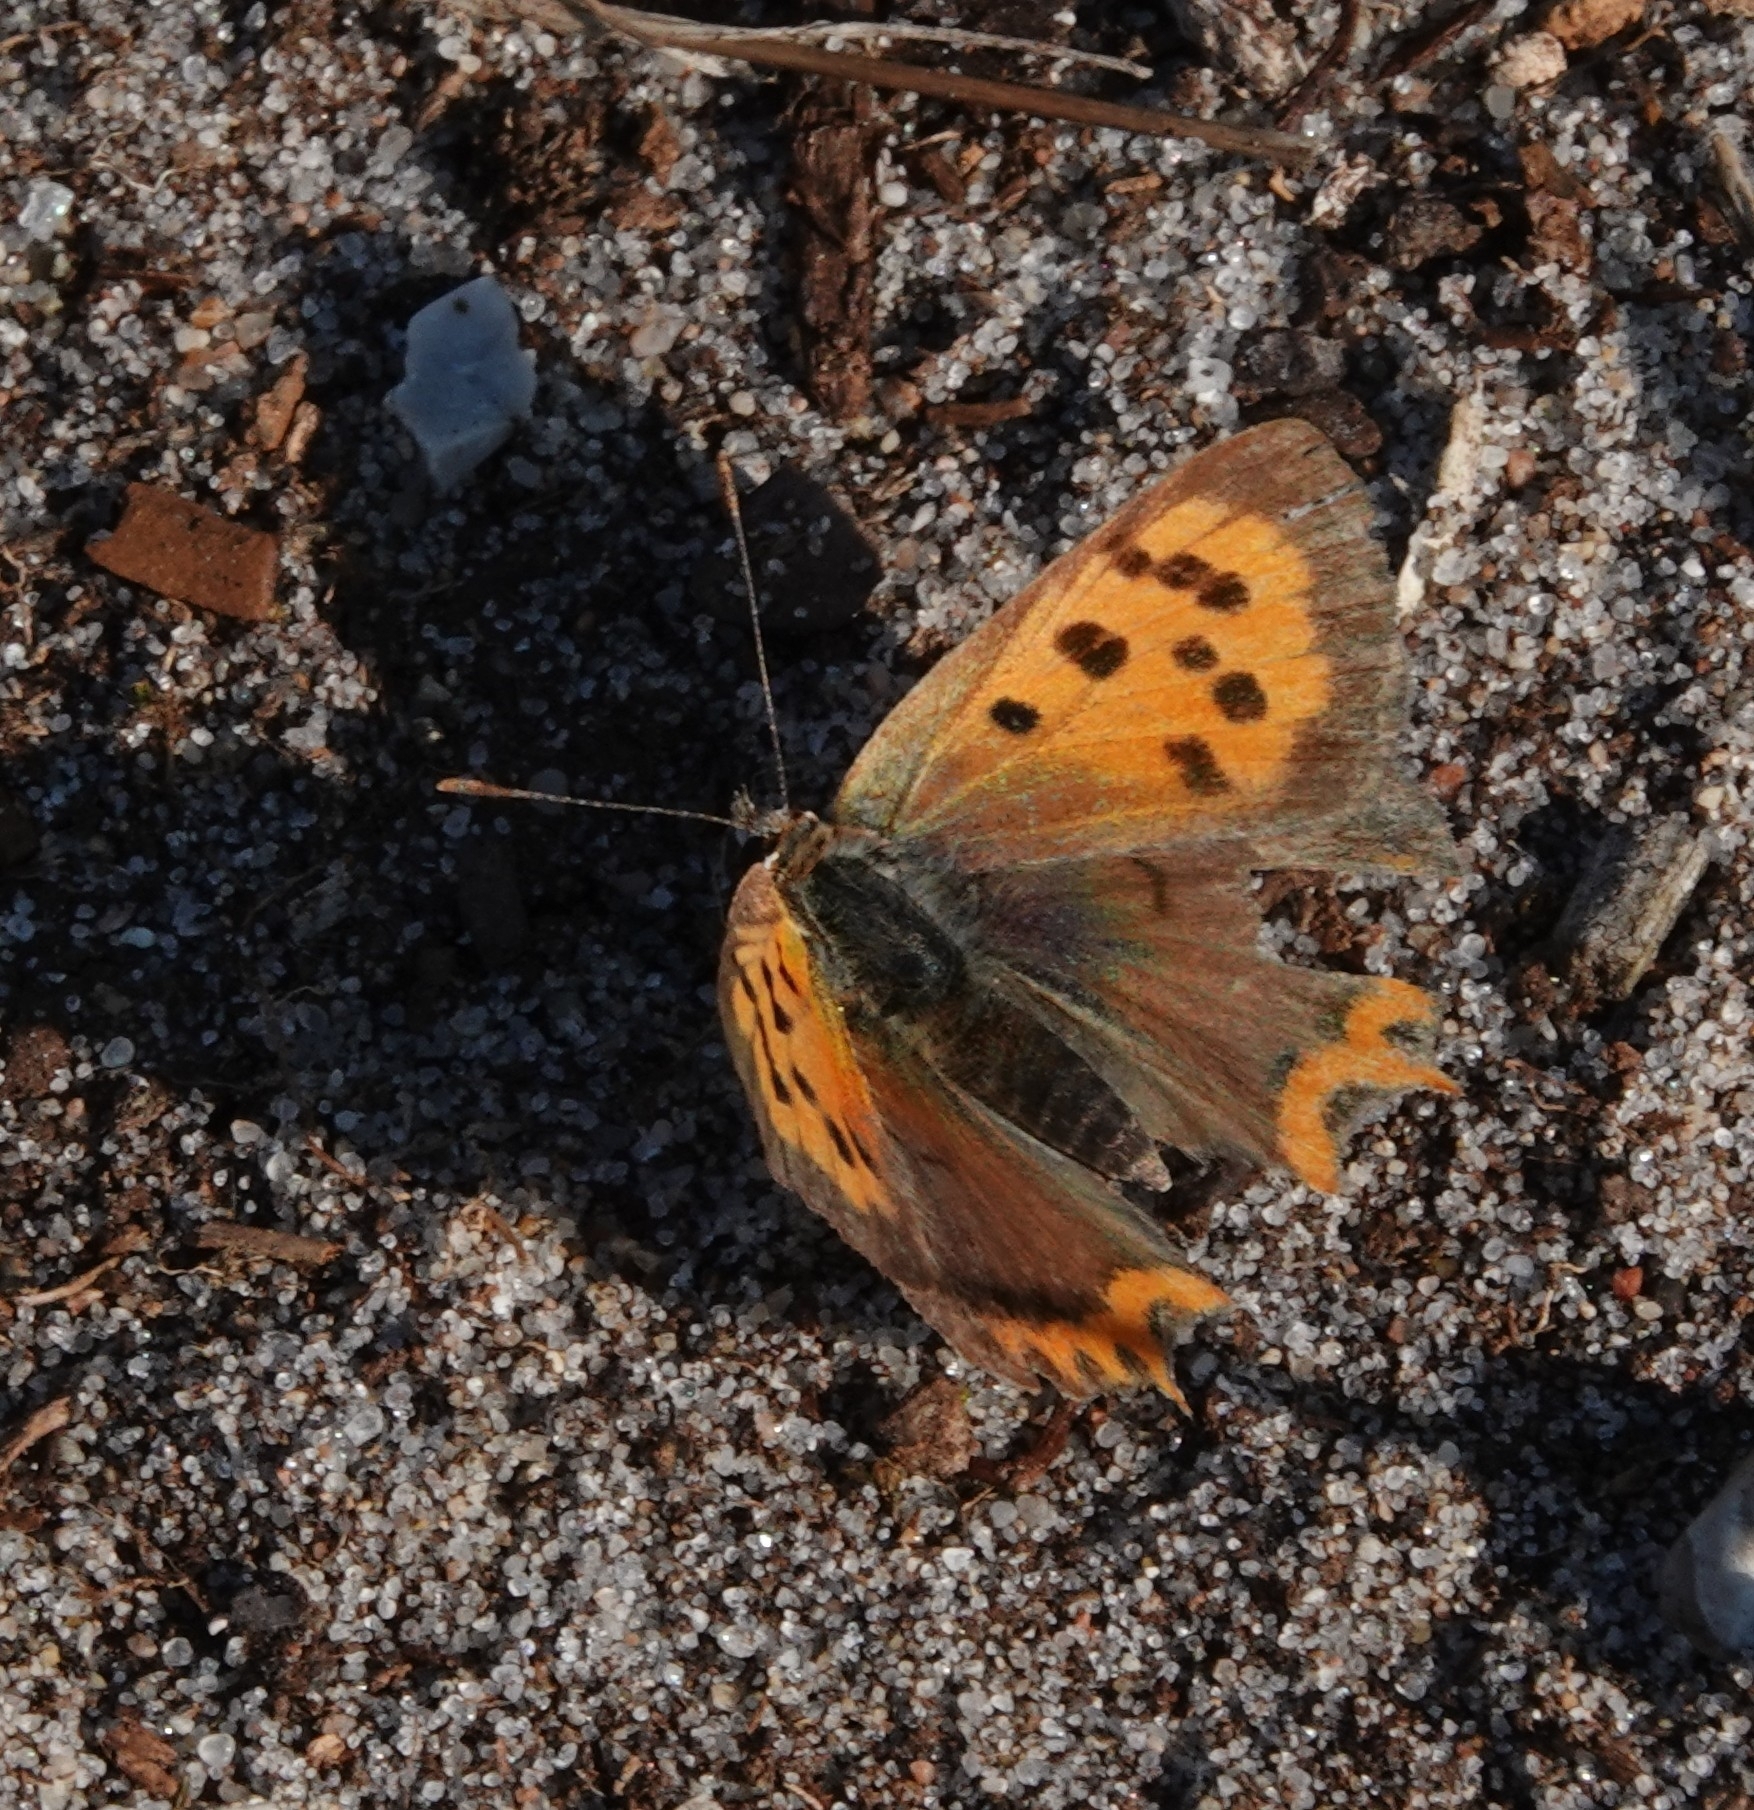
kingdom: Animalia
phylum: Arthropoda
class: Insecta
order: Lepidoptera
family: Lycaenidae
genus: Lycaena
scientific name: Lycaena phlaeas
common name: Small copper
